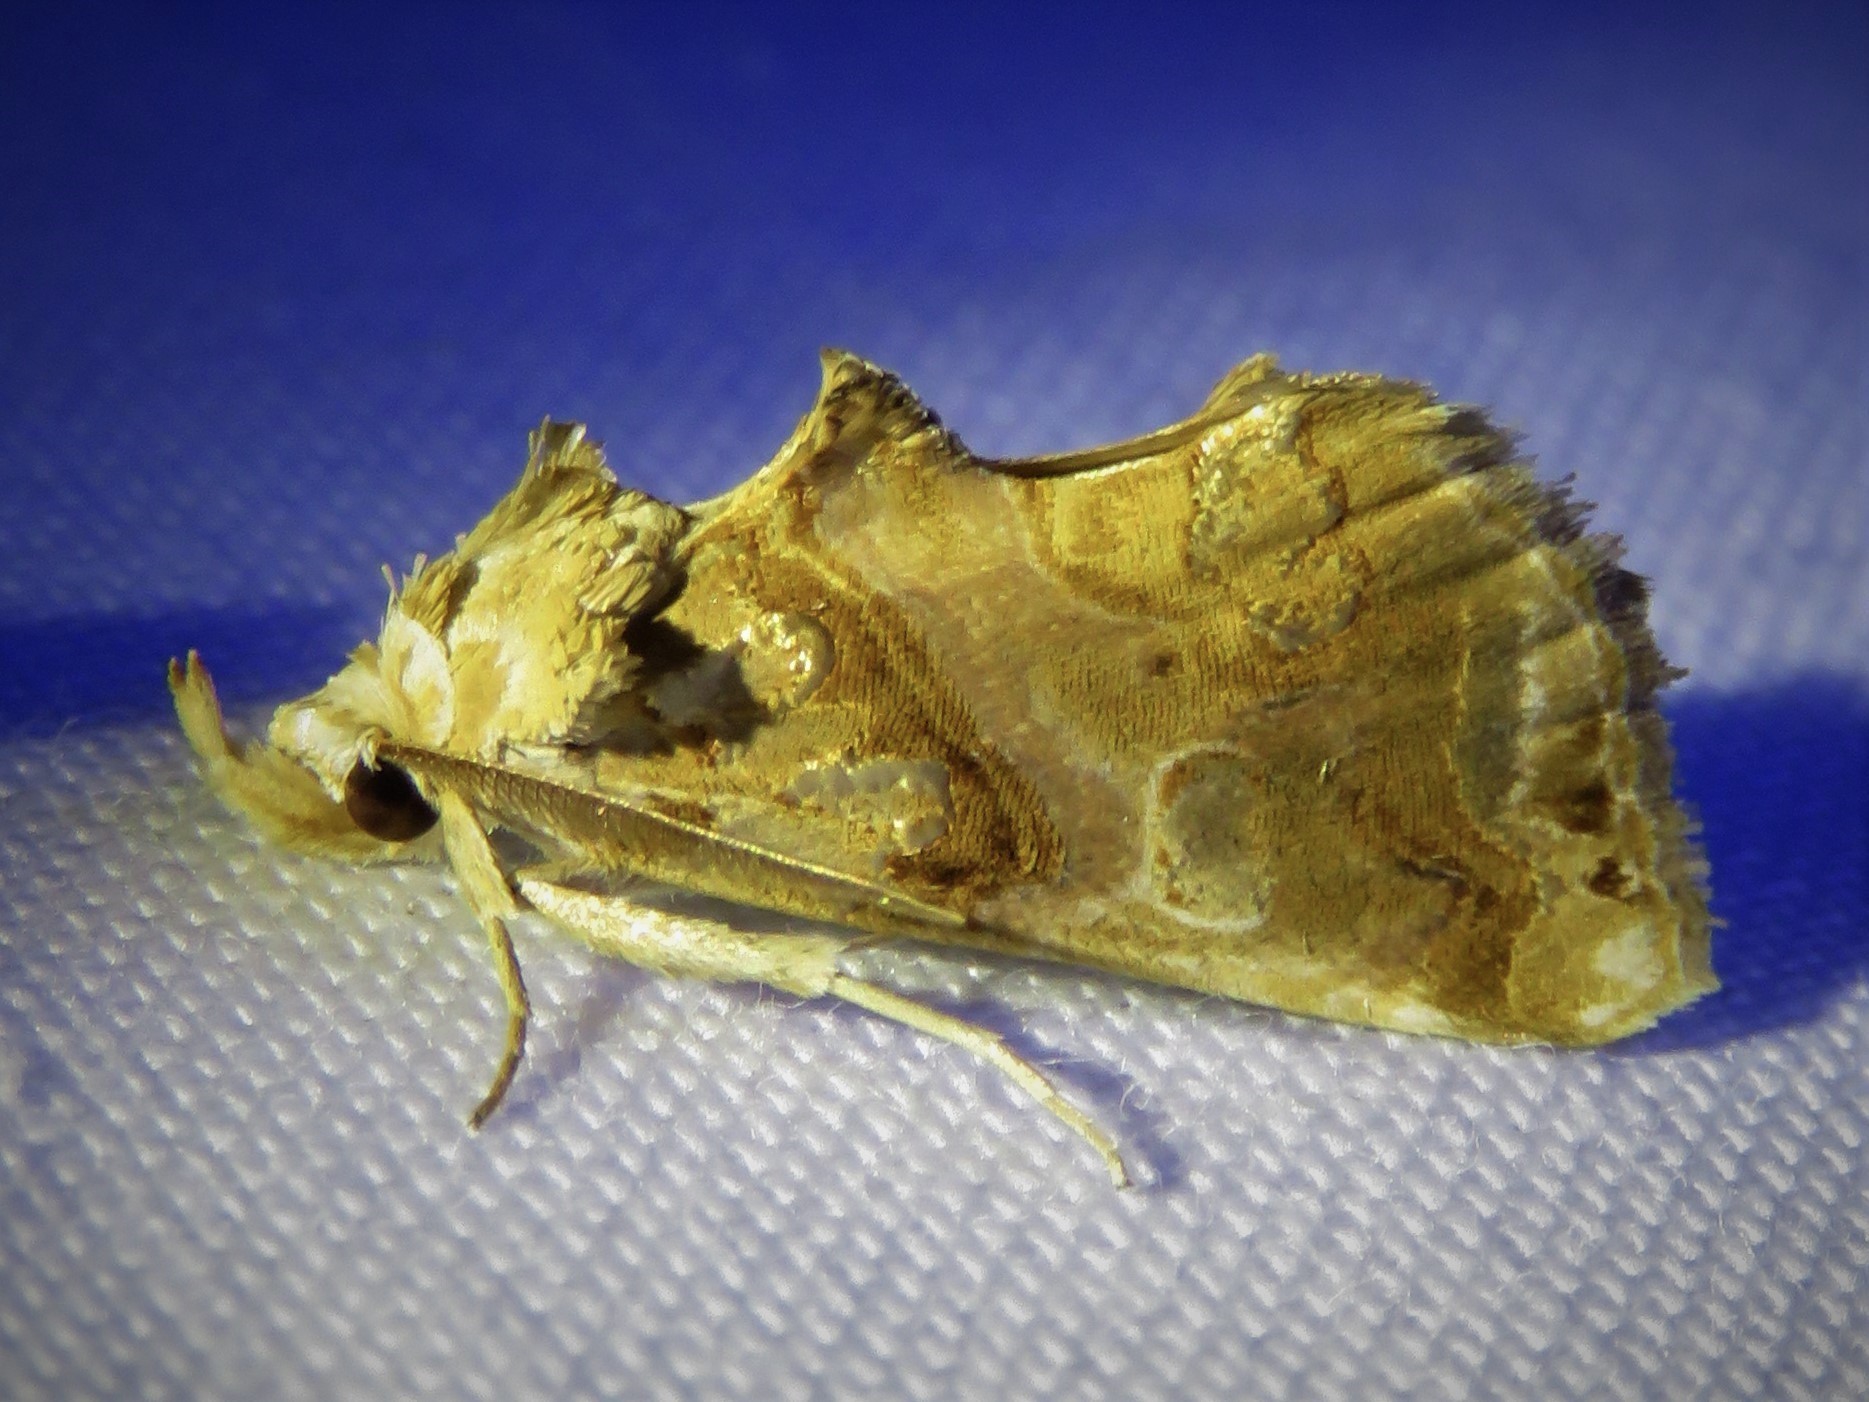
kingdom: Animalia
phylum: Arthropoda
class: Insecta
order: Lepidoptera
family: Erebidae
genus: Plusiodonta
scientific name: Plusiodonta compressipalpis
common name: Moonseed moth
